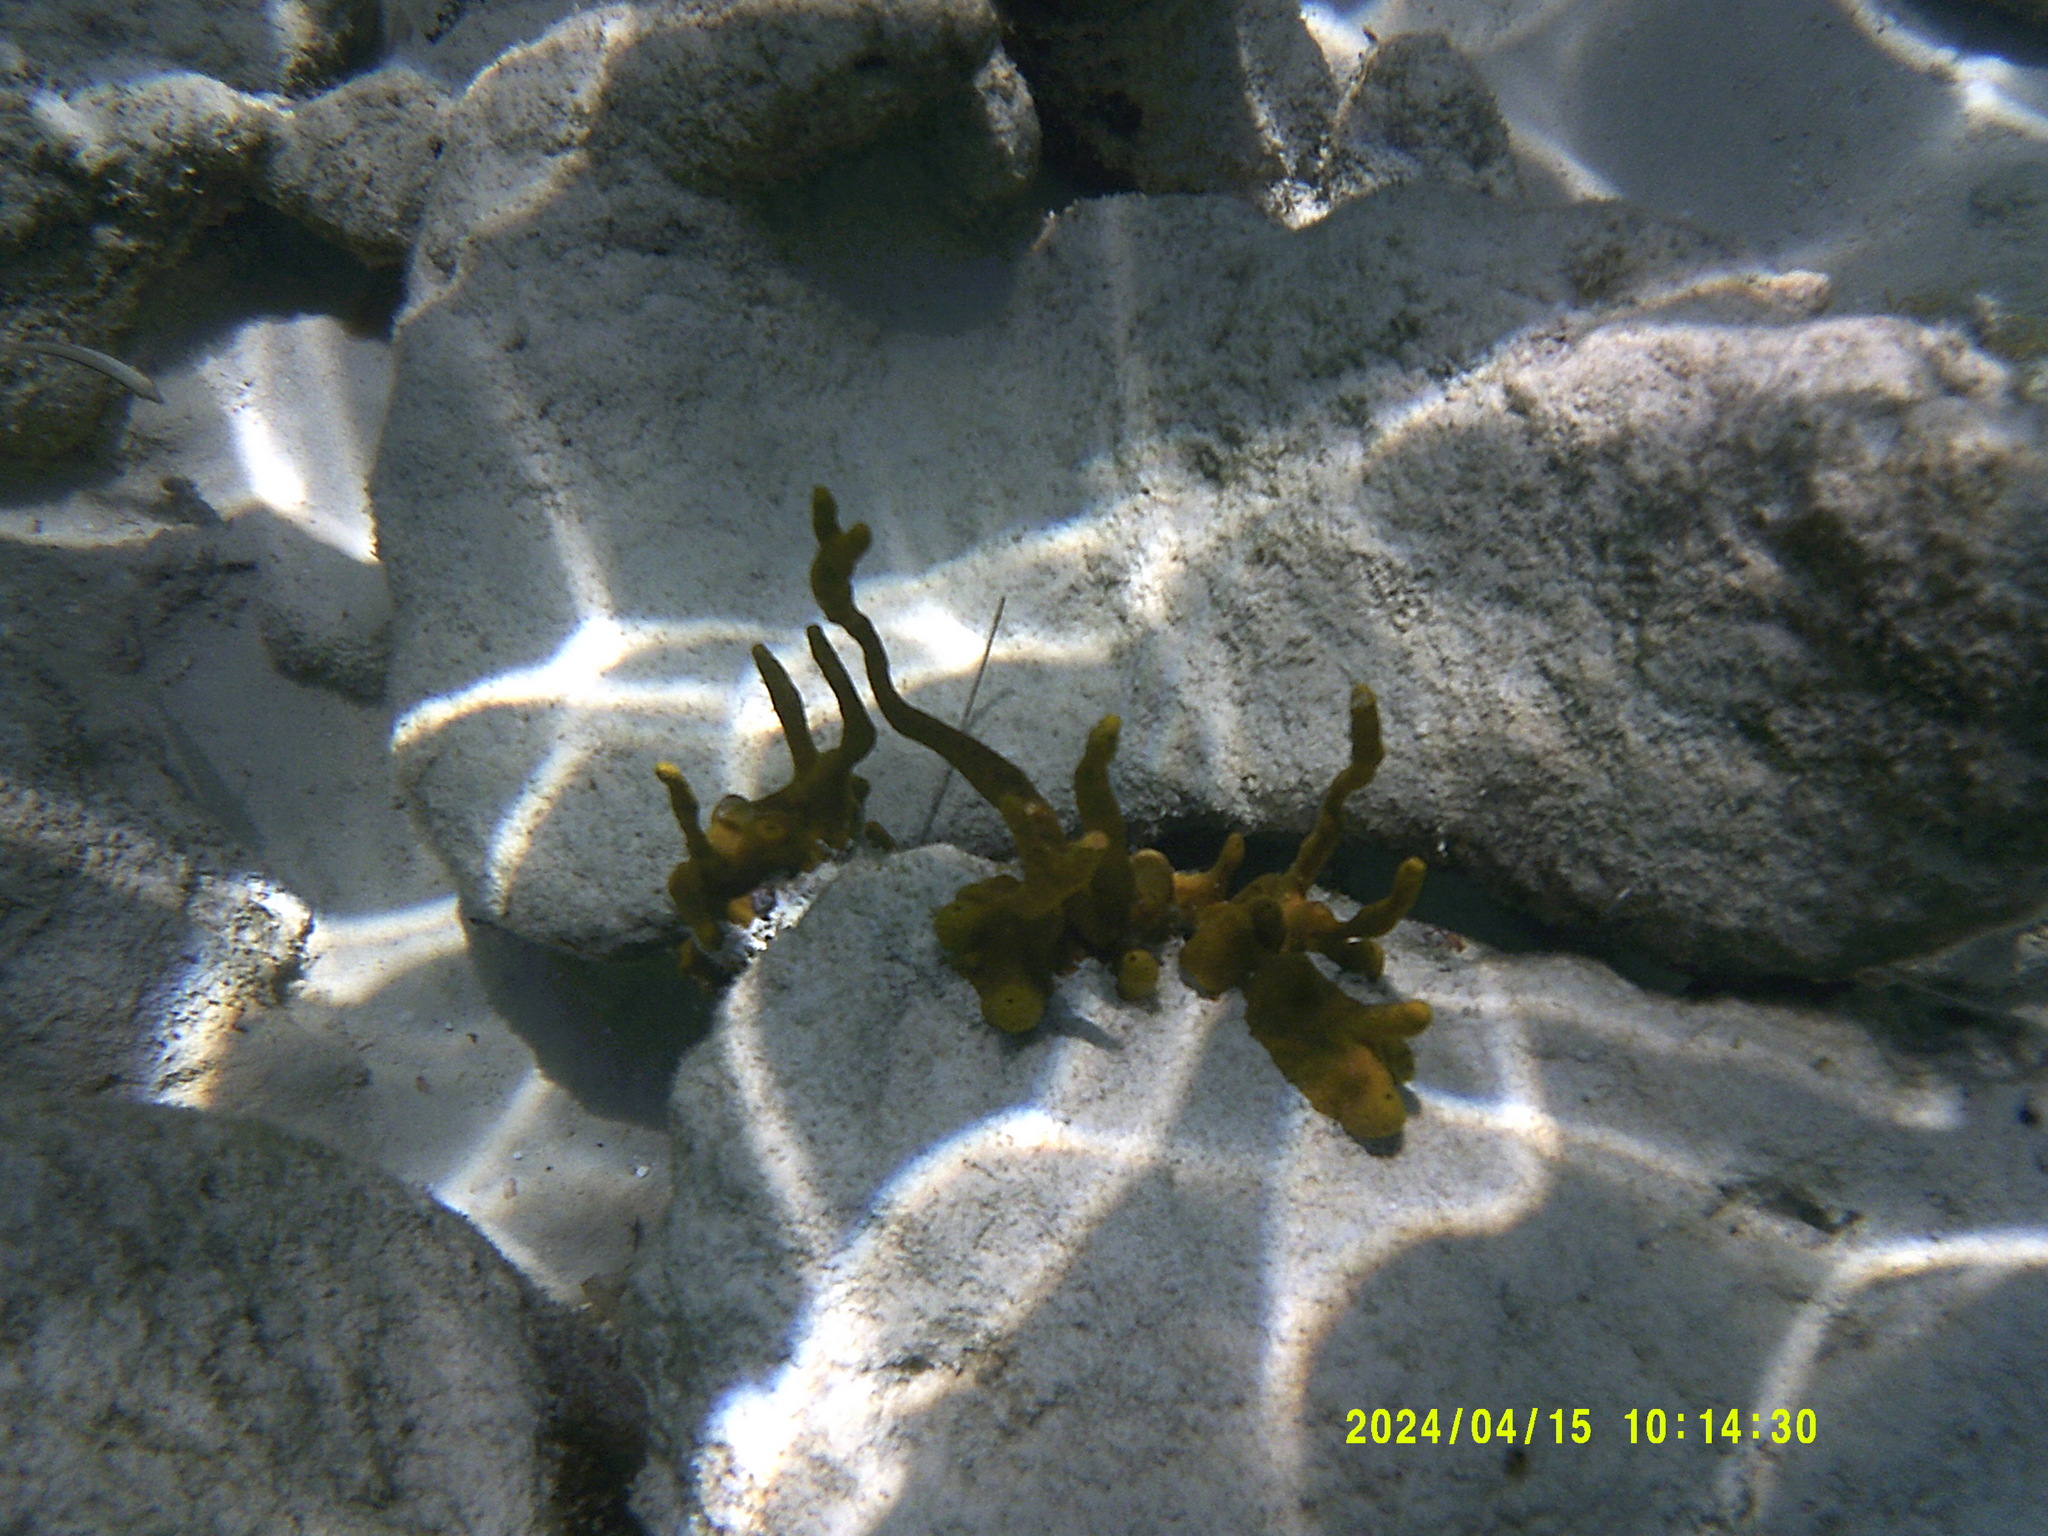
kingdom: Animalia
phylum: Porifera
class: Demospongiae
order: Verongiida
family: Aplysinidae
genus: Aplysina
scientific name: Aplysina fulva
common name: Scattered pore rope sponge
